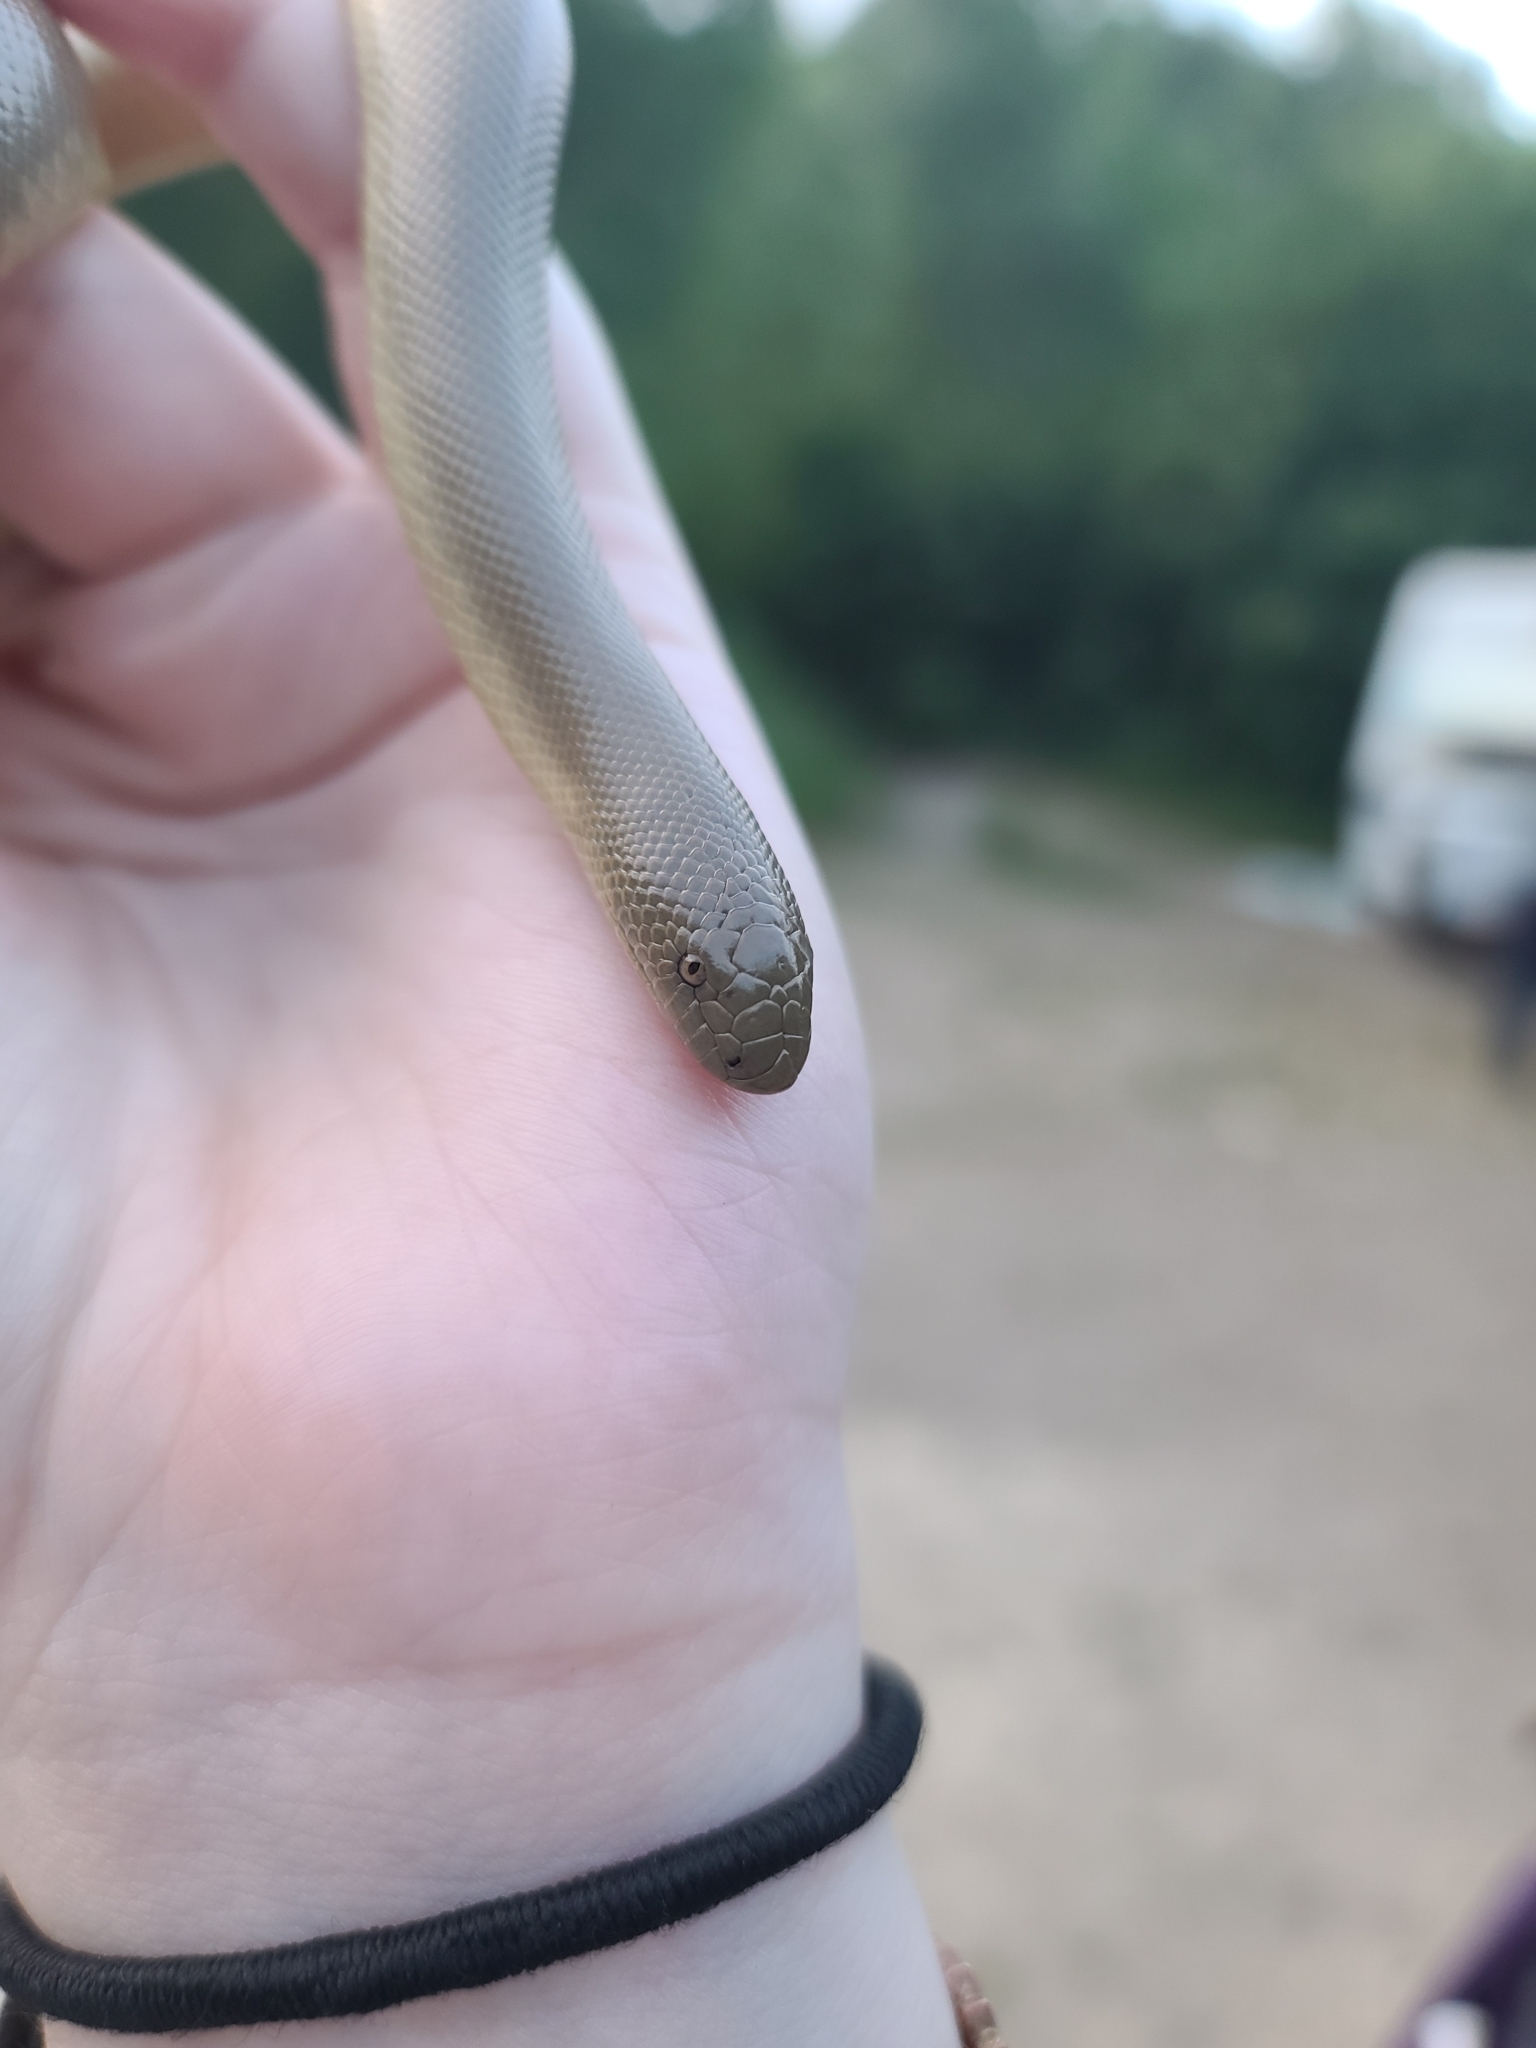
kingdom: Animalia
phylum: Chordata
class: Squamata
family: Boidae
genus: Charina
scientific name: Charina bottae
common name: Northern rubber boa
